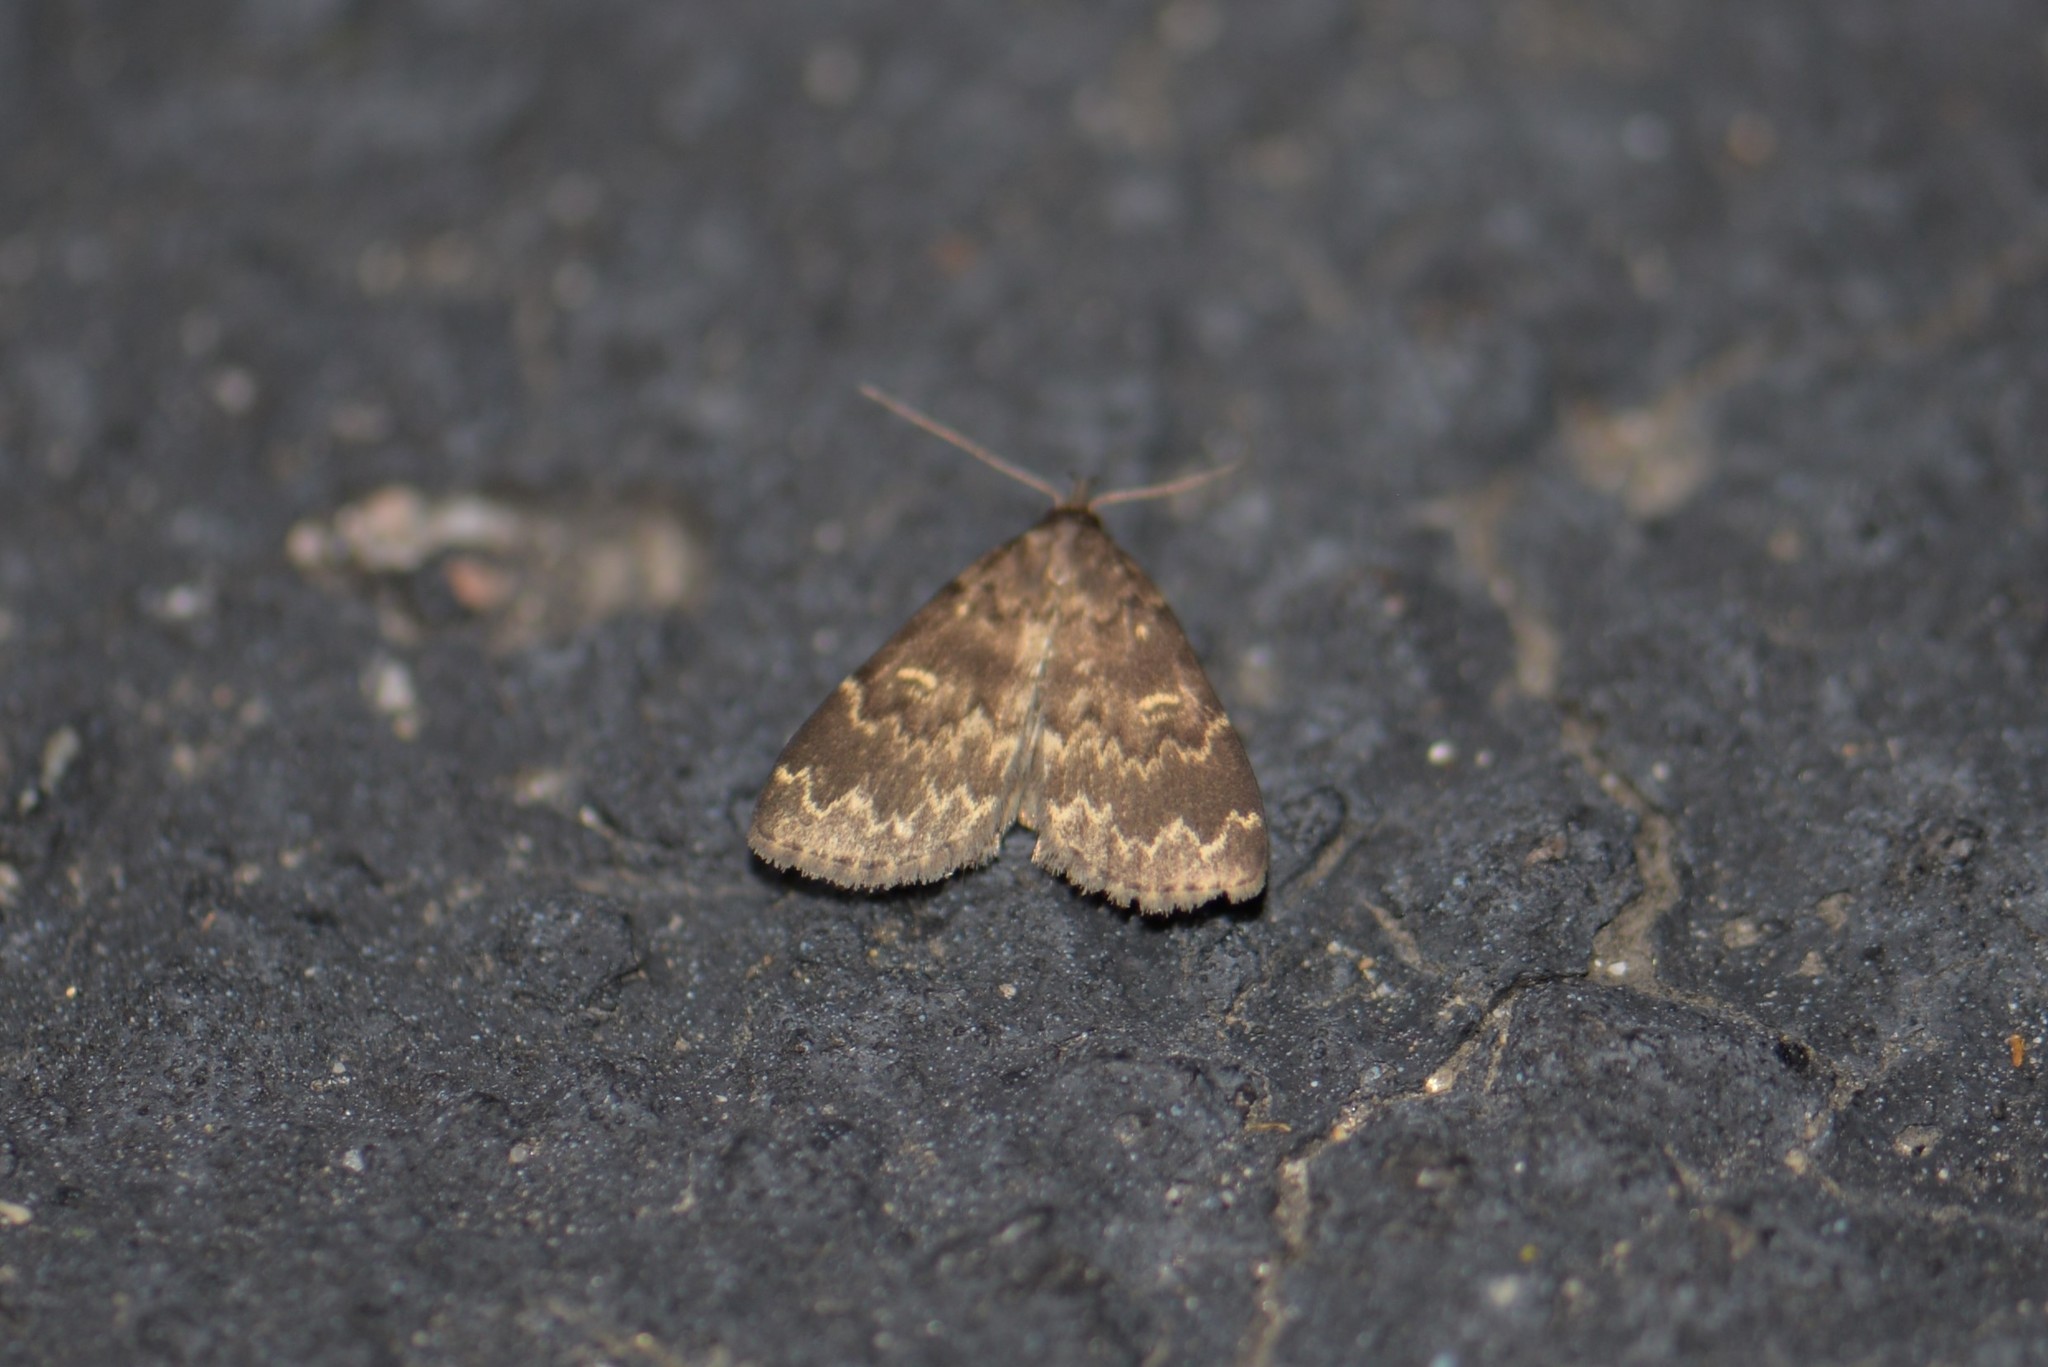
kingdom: Animalia
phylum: Arthropoda
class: Insecta
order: Lepidoptera
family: Erebidae
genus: Idia
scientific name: Idia lubricalis
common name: Twin-striped tabby
